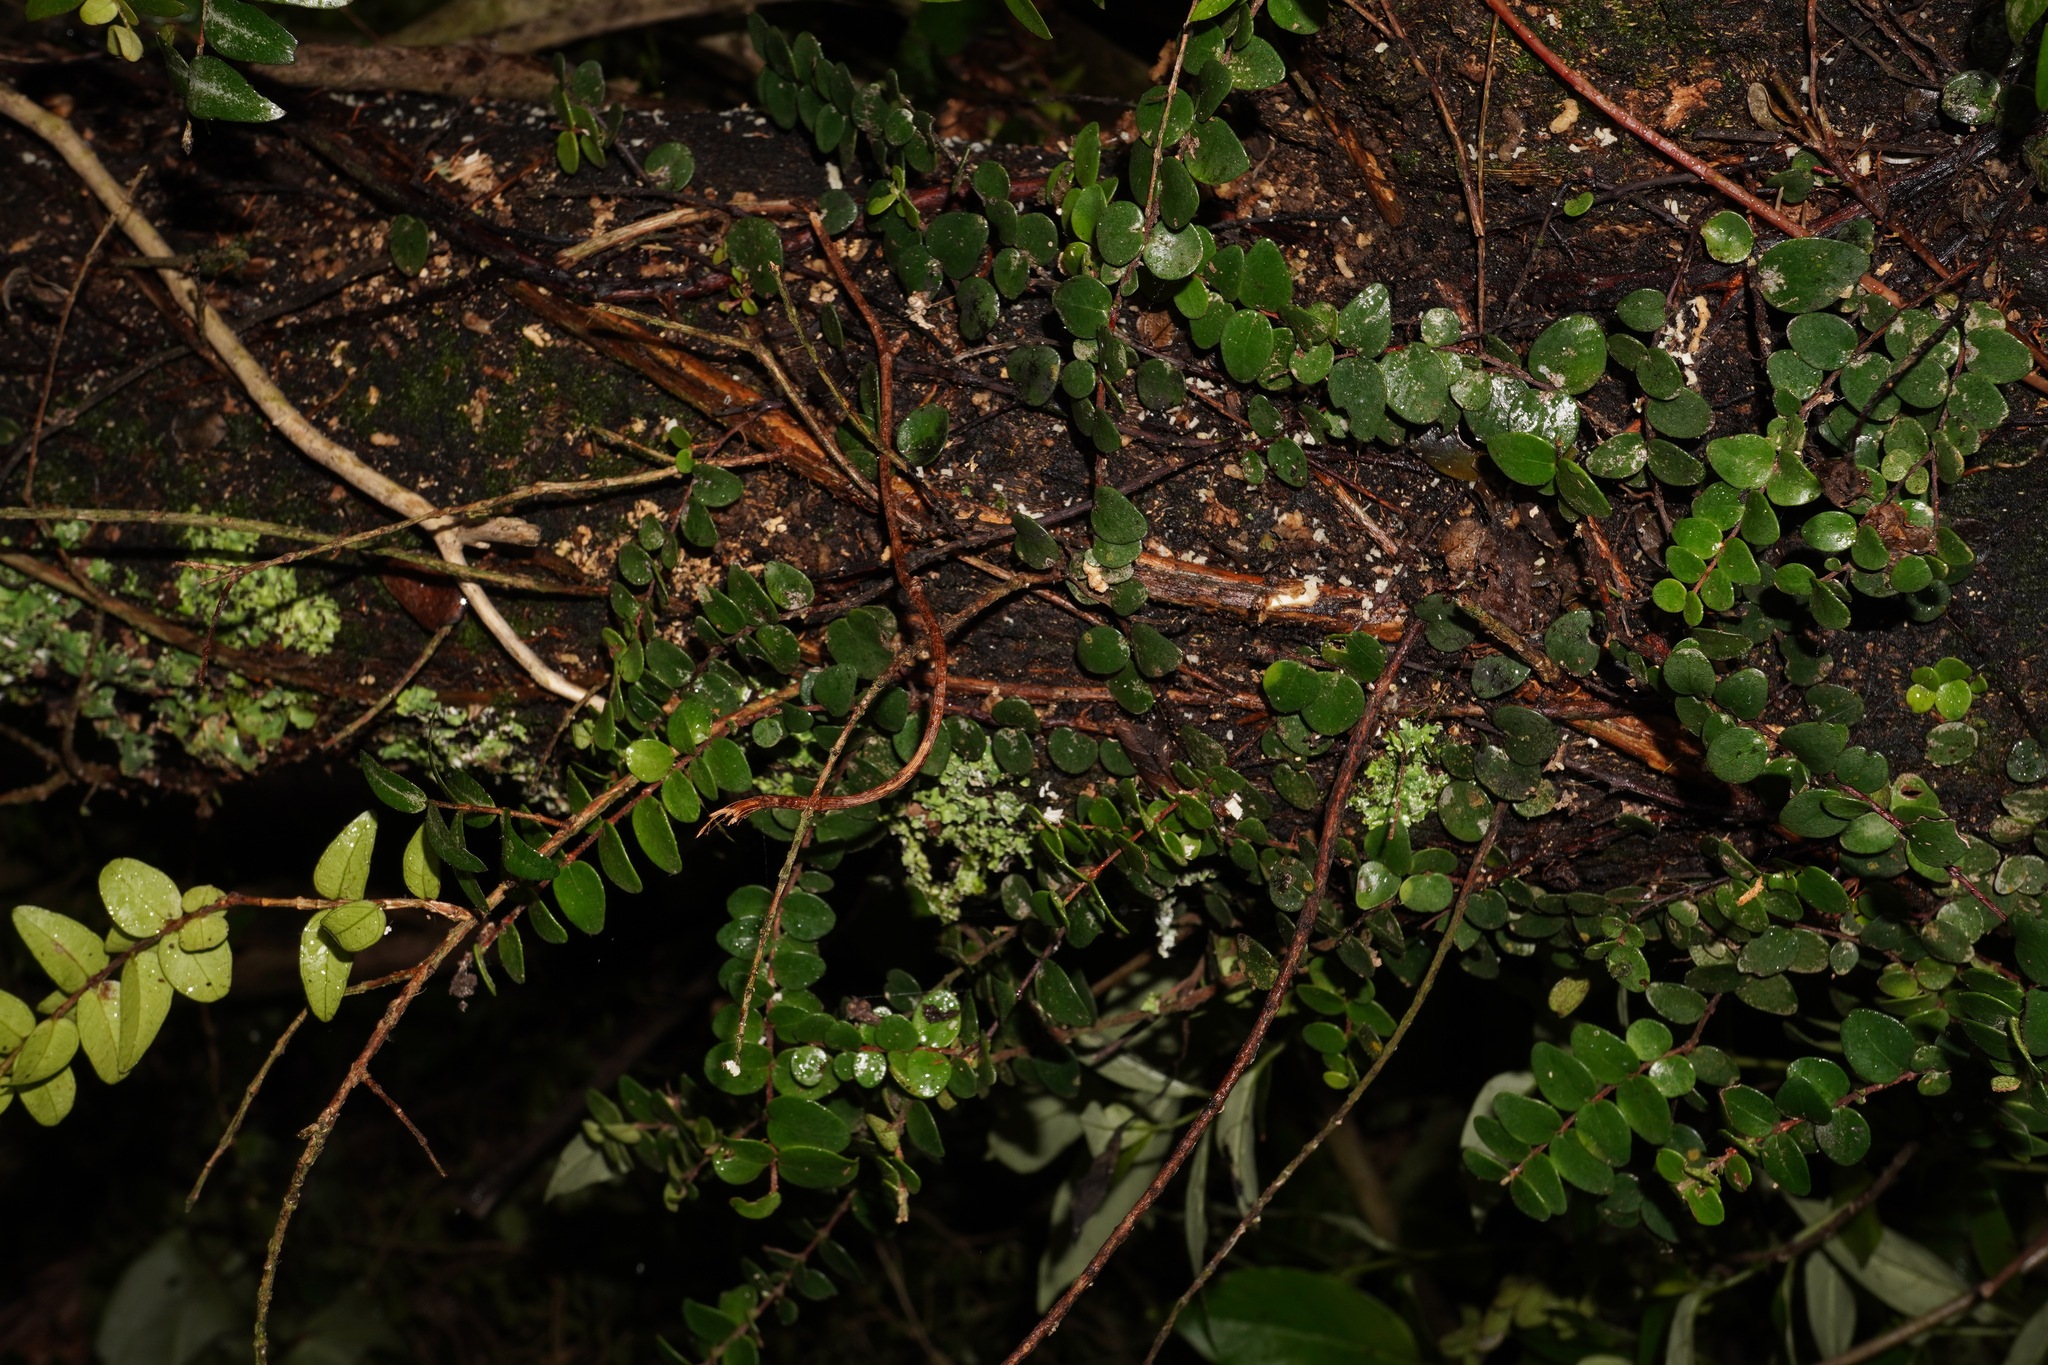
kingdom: Plantae
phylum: Tracheophyta
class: Magnoliopsida
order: Myrtales
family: Myrtaceae
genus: Metrosideros
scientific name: Metrosideros perforata
